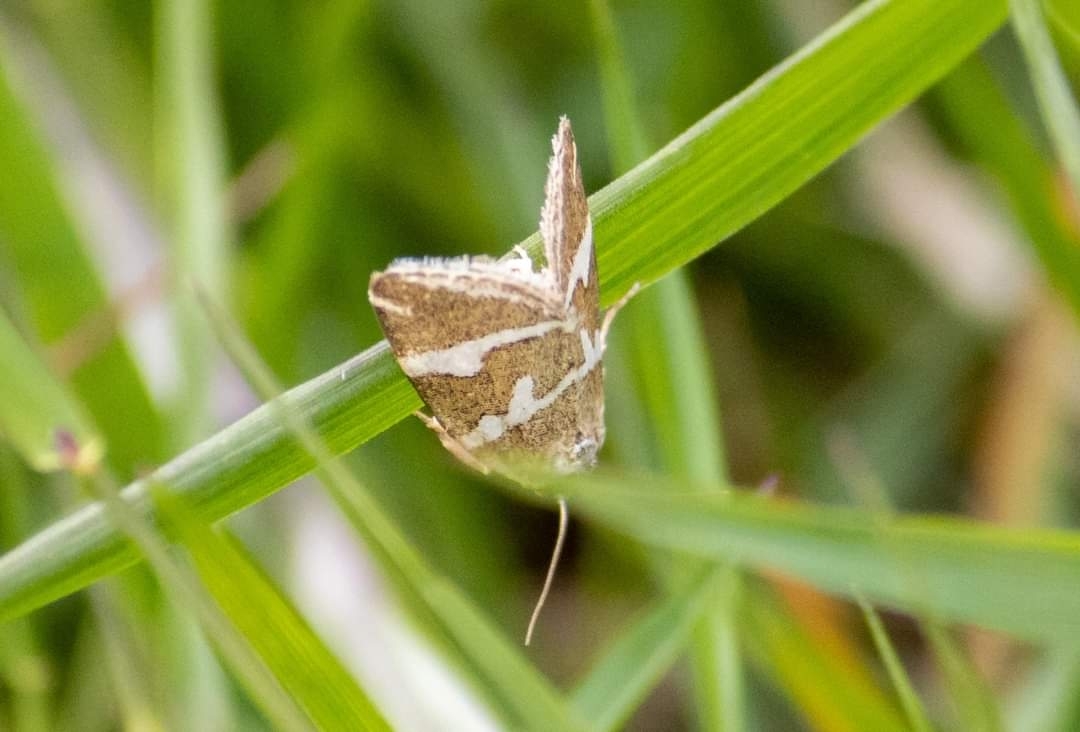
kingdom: Animalia
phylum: Arthropoda
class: Insecta
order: Lepidoptera
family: Noctuidae
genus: Deltote
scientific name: Deltote bankiana
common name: Silver barred
